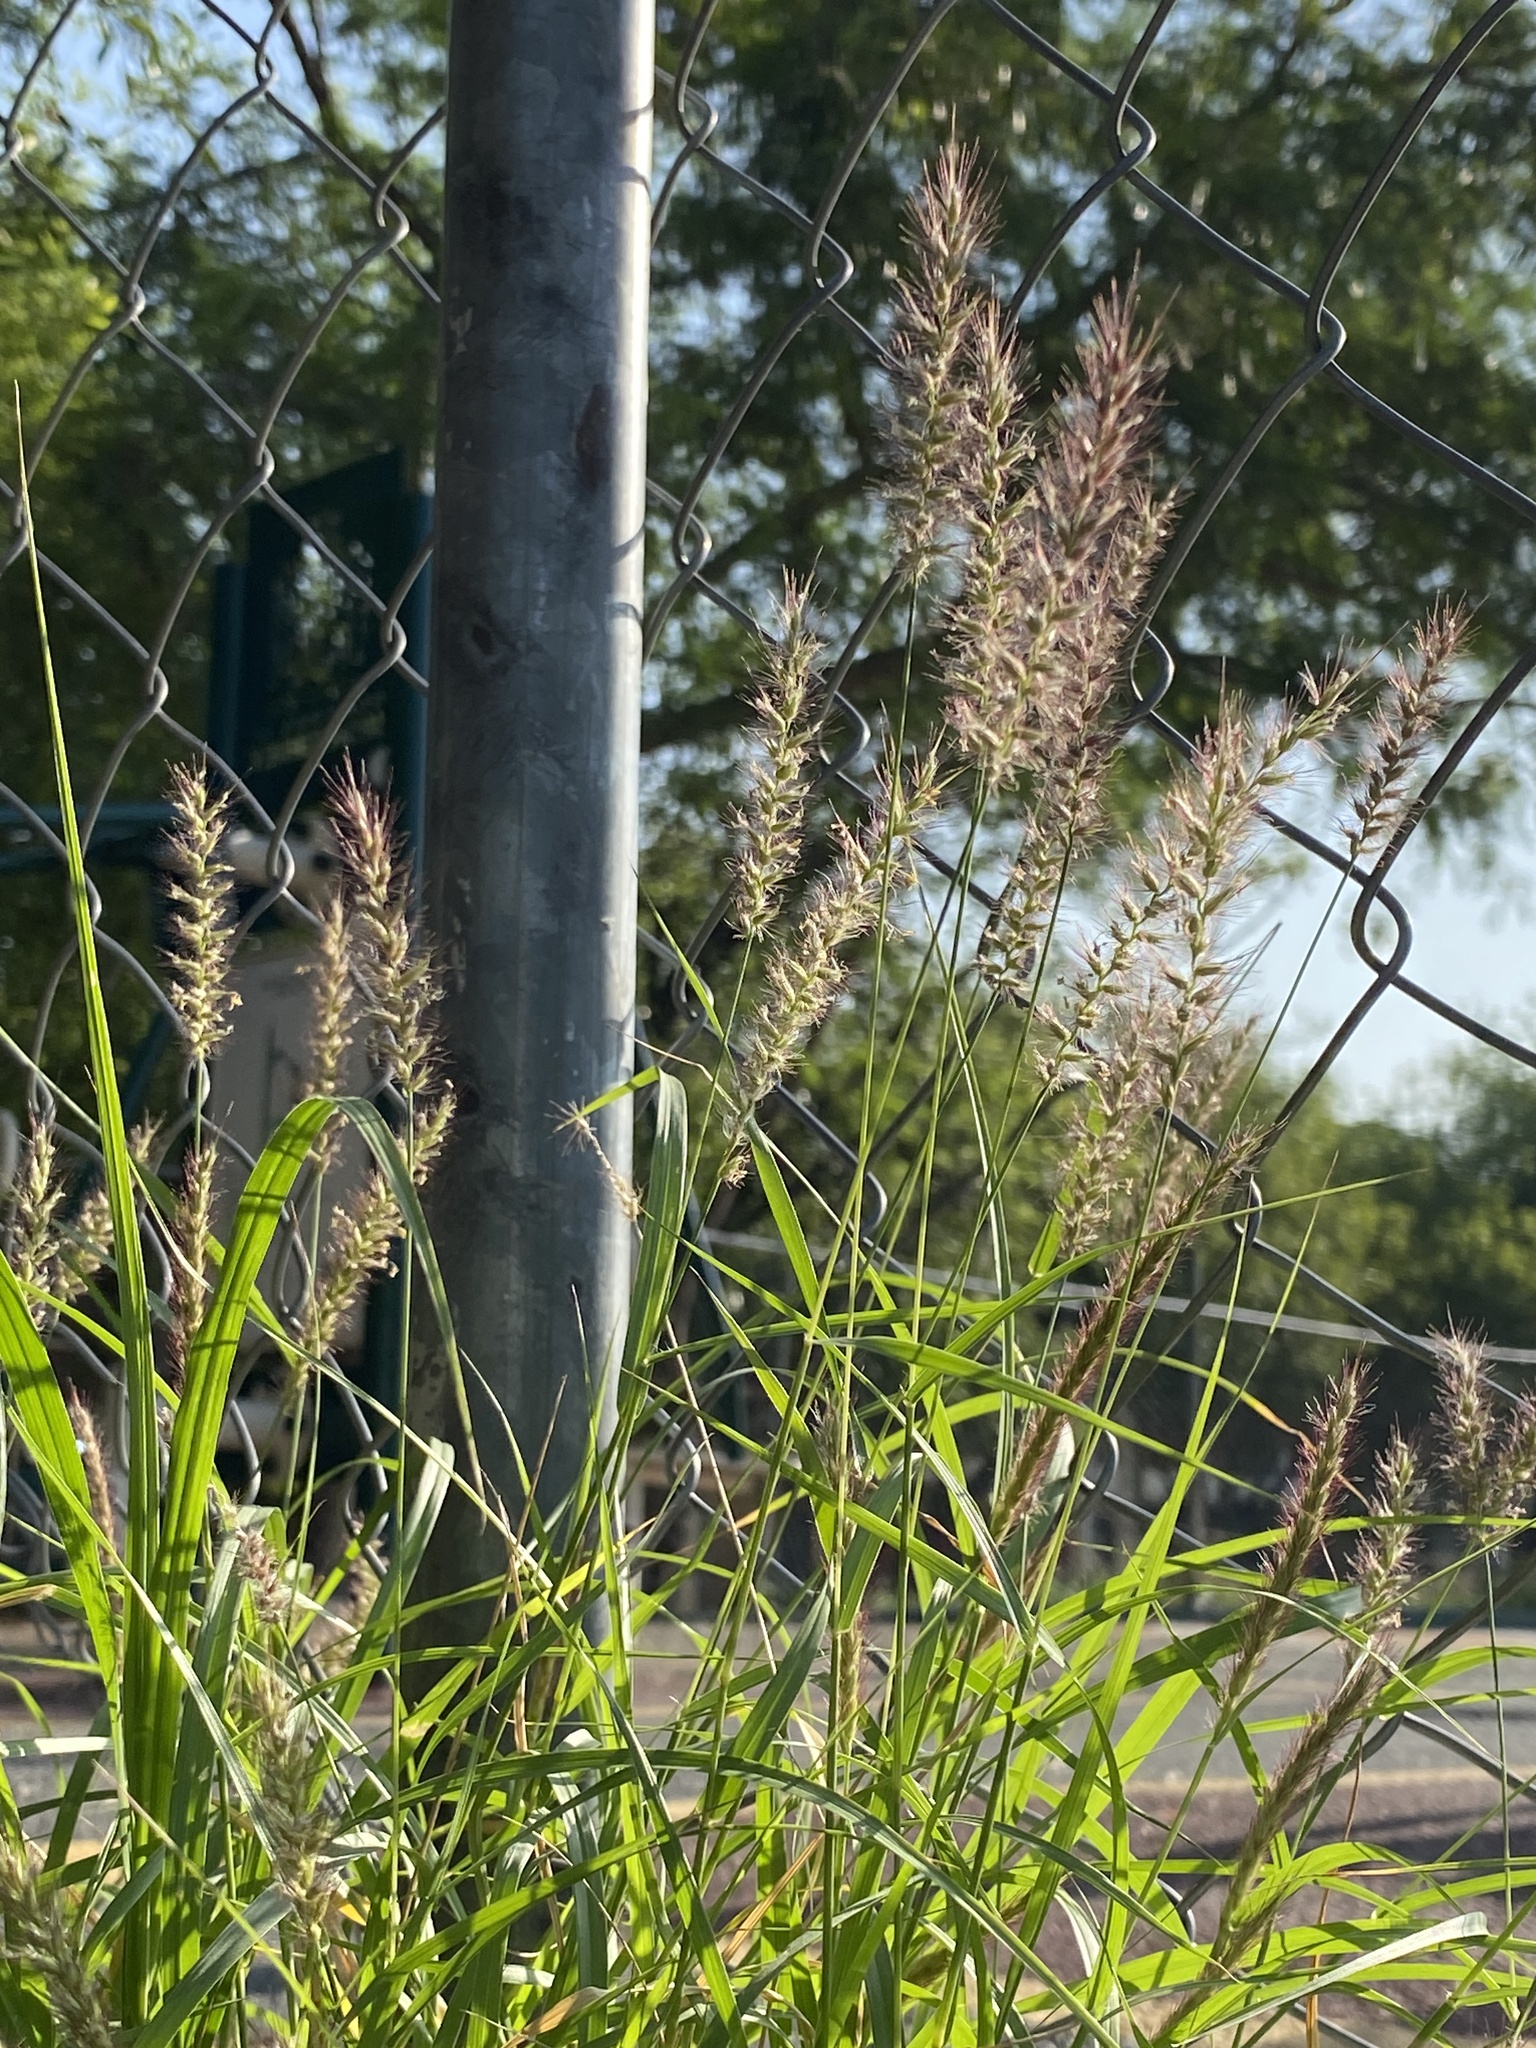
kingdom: Plantae
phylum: Tracheophyta
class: Liliopsida
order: Poales
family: Poaceae
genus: Cenchrus
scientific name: Cenchrus ciliaris
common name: Buffelgrass
